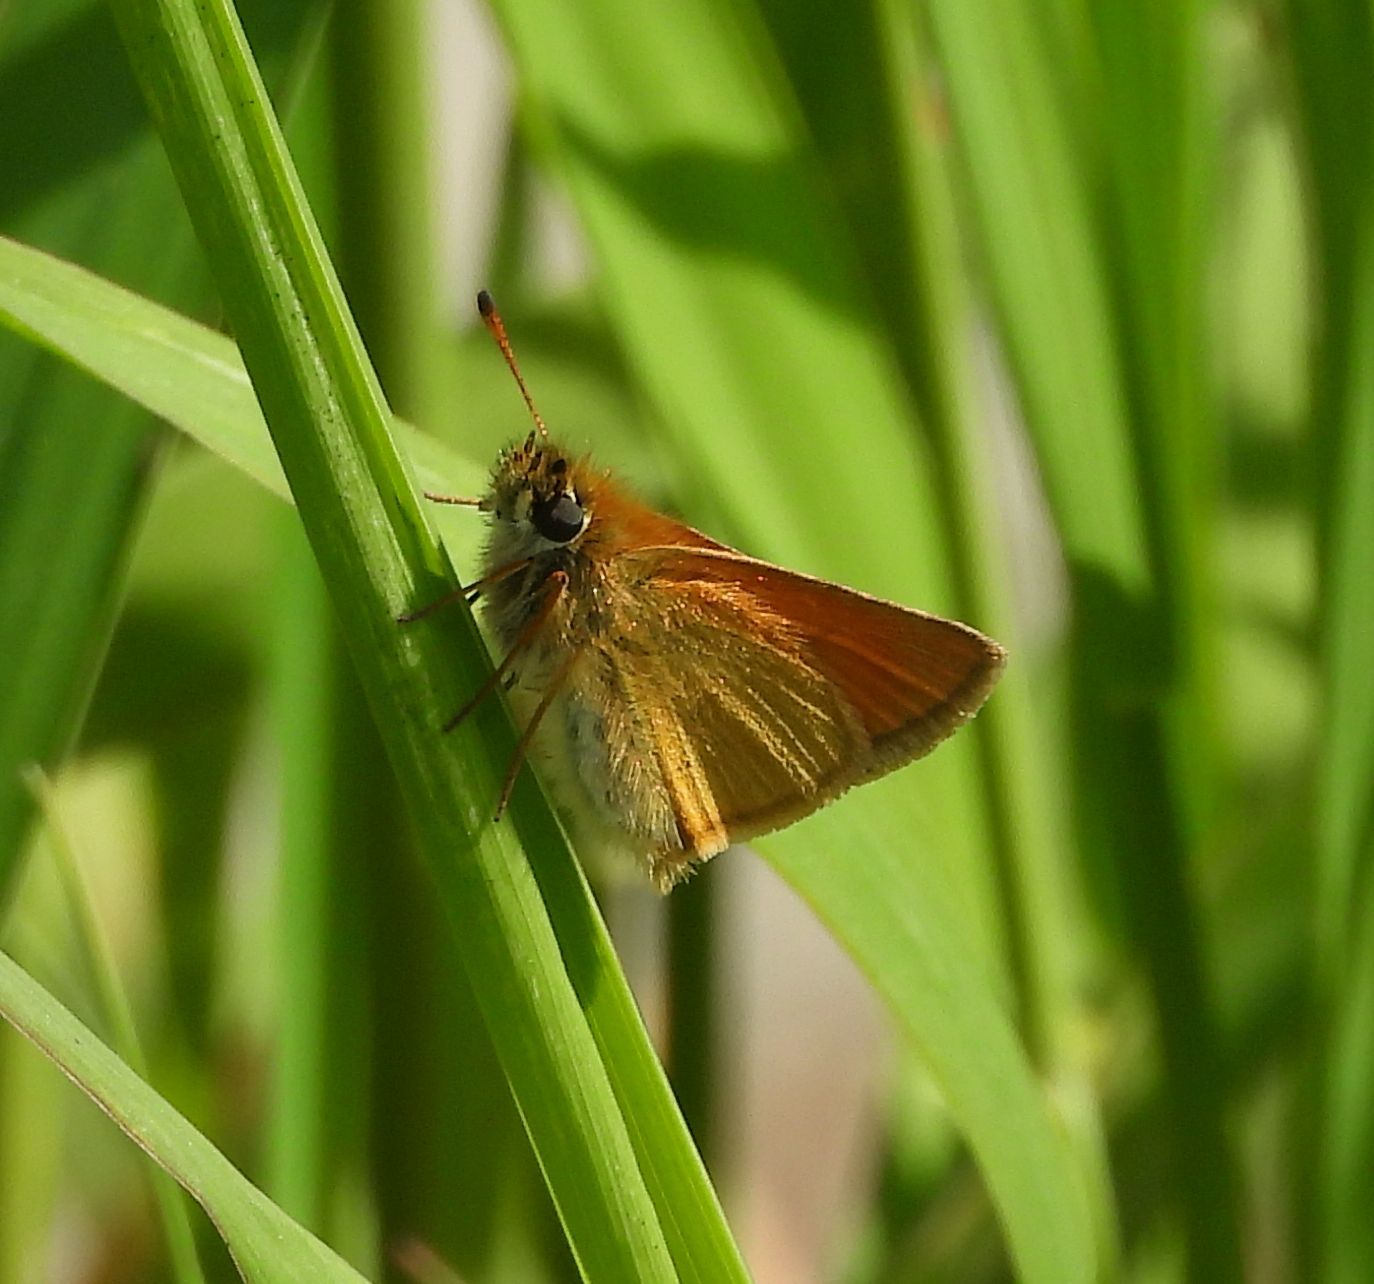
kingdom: Animalia
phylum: Arthropoda
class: Insecta
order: Lepidoptera
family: Hesperiidae
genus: Thymelicus
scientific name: Thymelicus lineola
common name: Essex skipper
